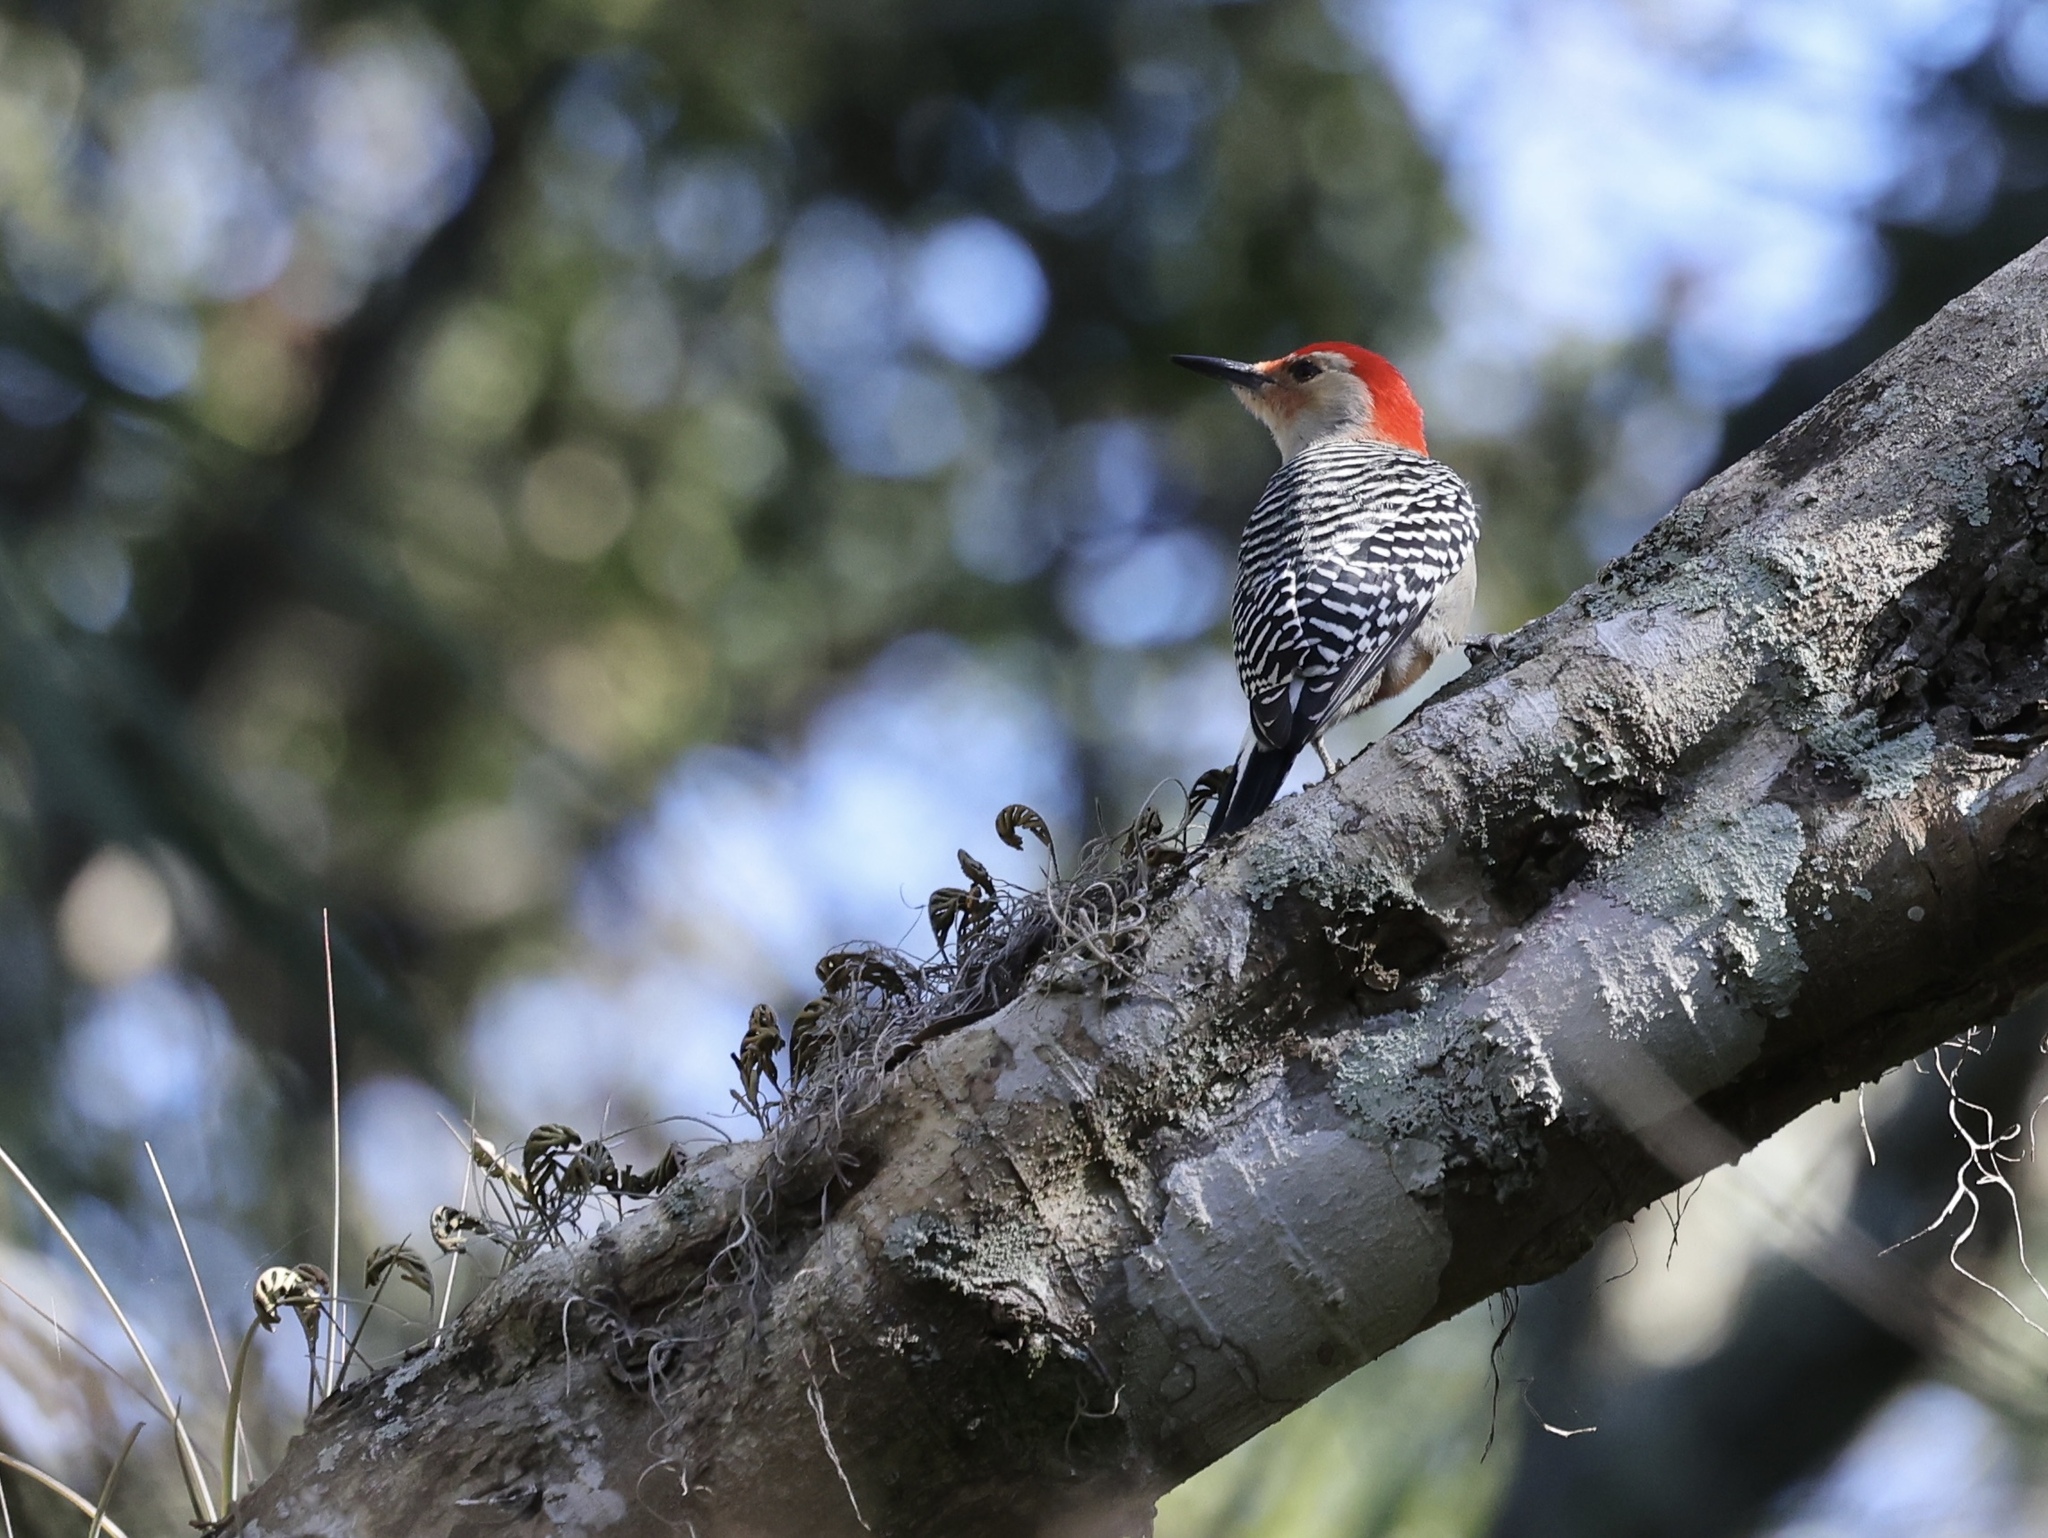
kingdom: Animalia
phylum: Chordata
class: Aves
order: Piciformes
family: Picidae
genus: Melanerpes
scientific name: Melanerpes carolinus
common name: Red-bellied woodpecker
